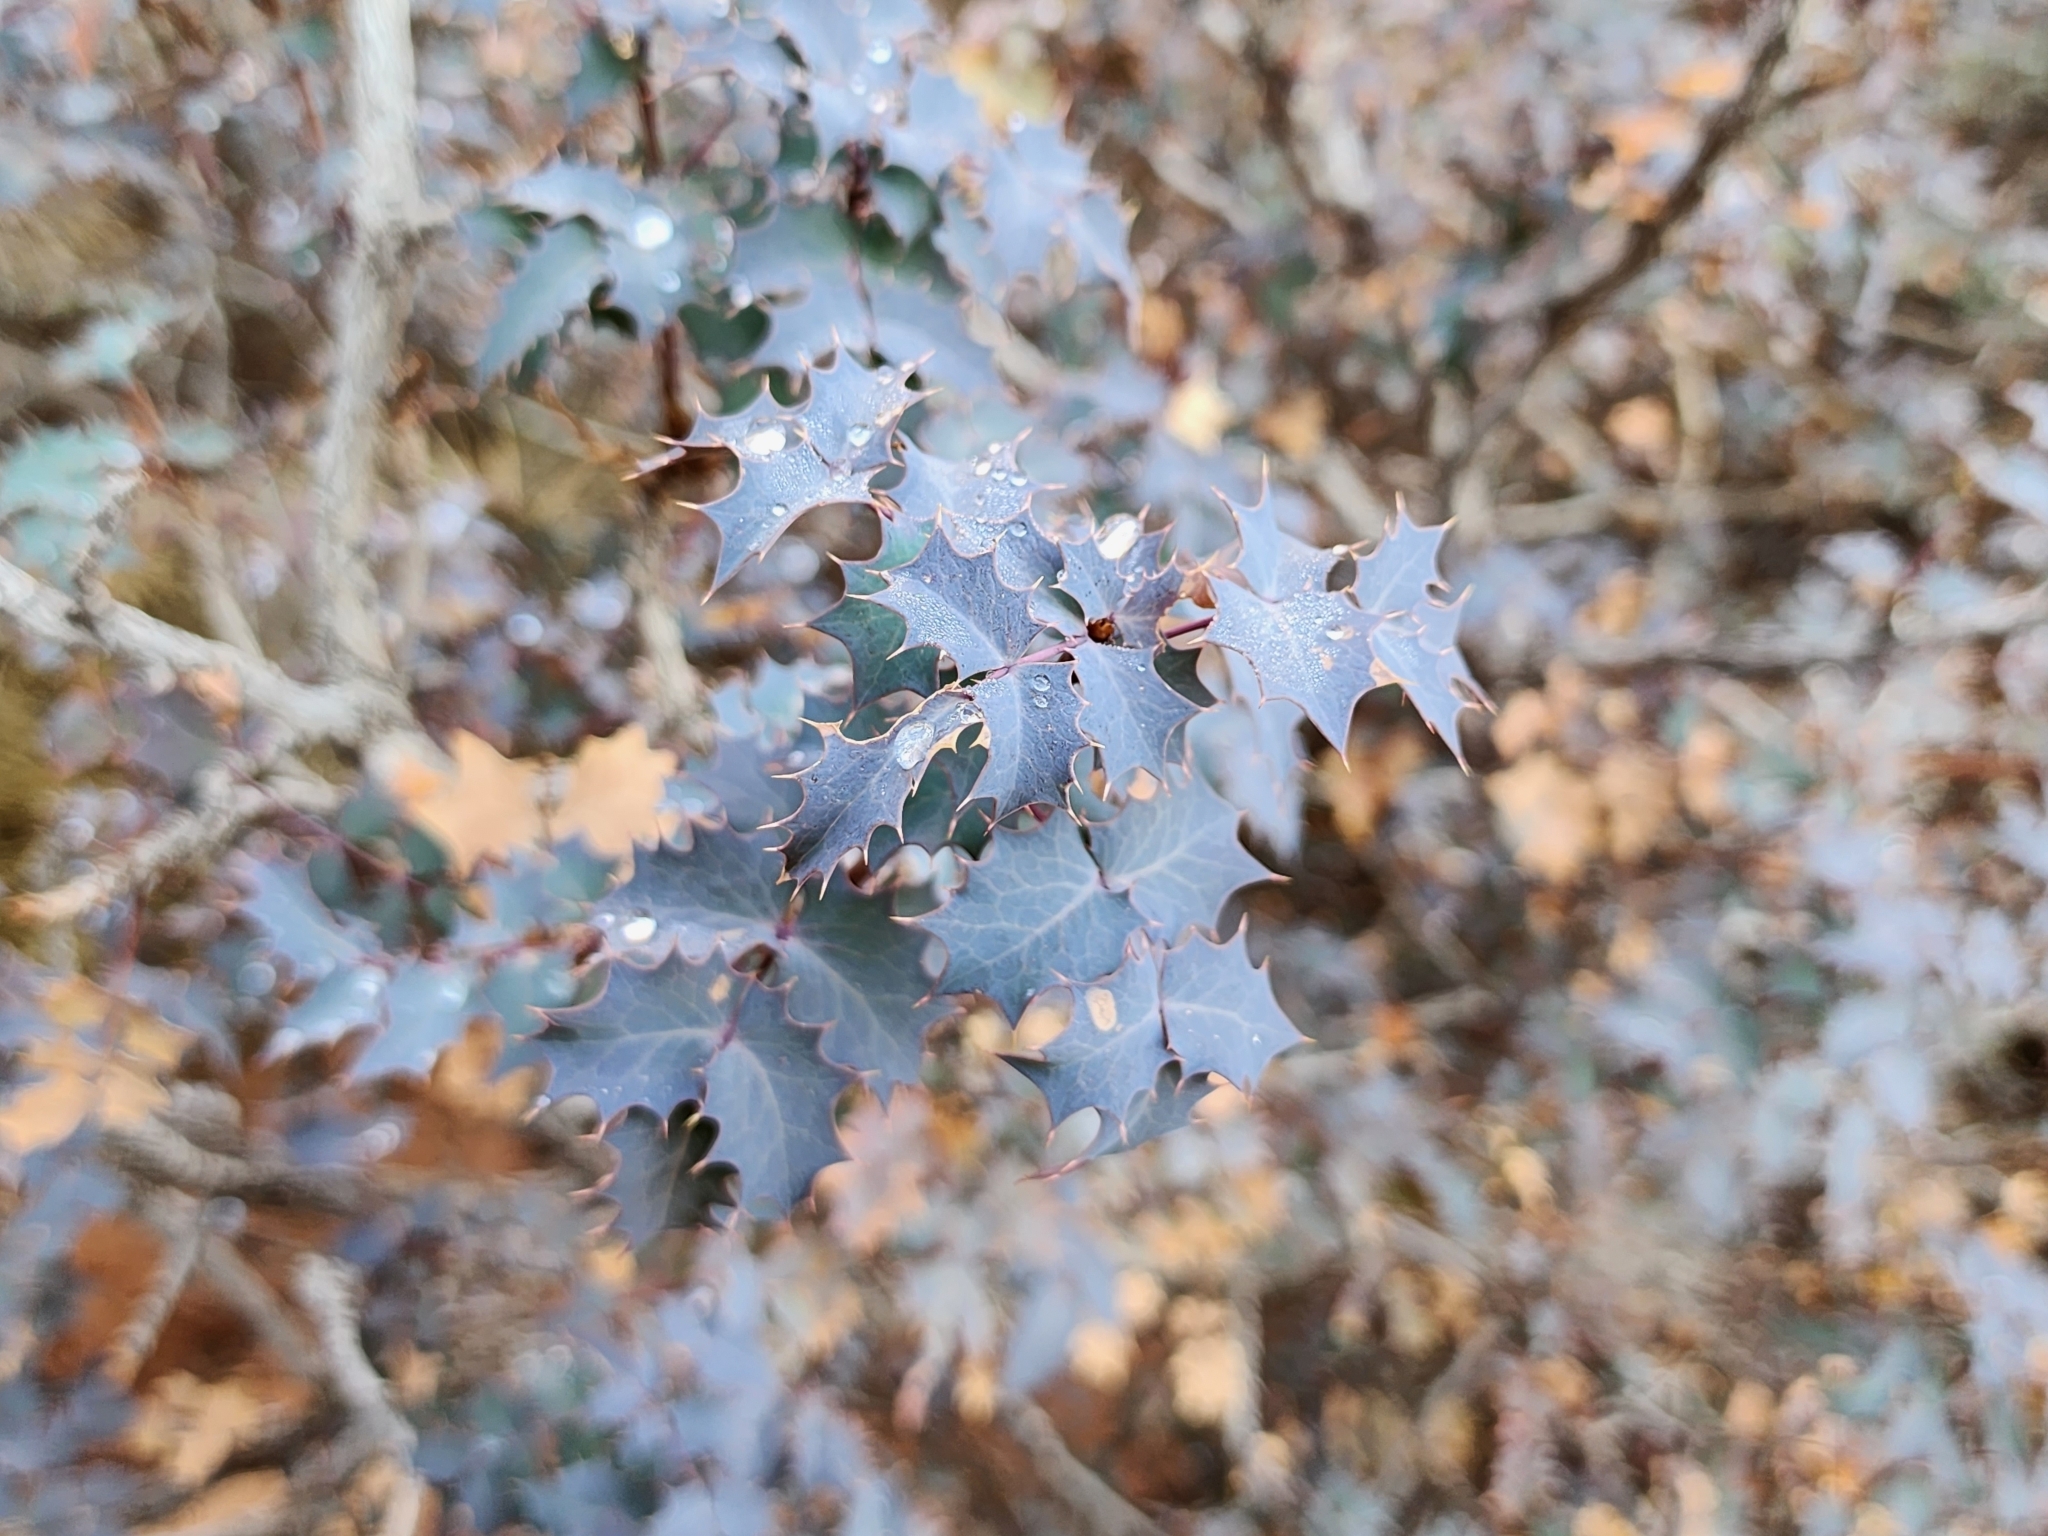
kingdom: Plantae
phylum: Tracheophyta
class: Magnoliopsida
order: Ranunculales
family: Berberidaceae
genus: Alloberberis
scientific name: Alloberberis fremontii
